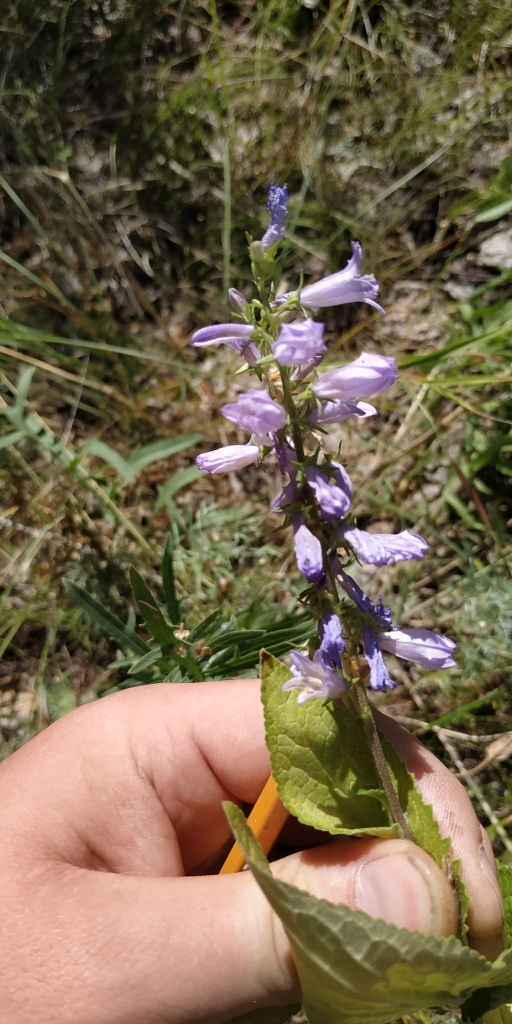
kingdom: Plantae
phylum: Tracheophyta
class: Magnoliopsida
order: Asterales
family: Campanulaceae
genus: Campanula
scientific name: Campanula bononiensis
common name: Pale bellflower
